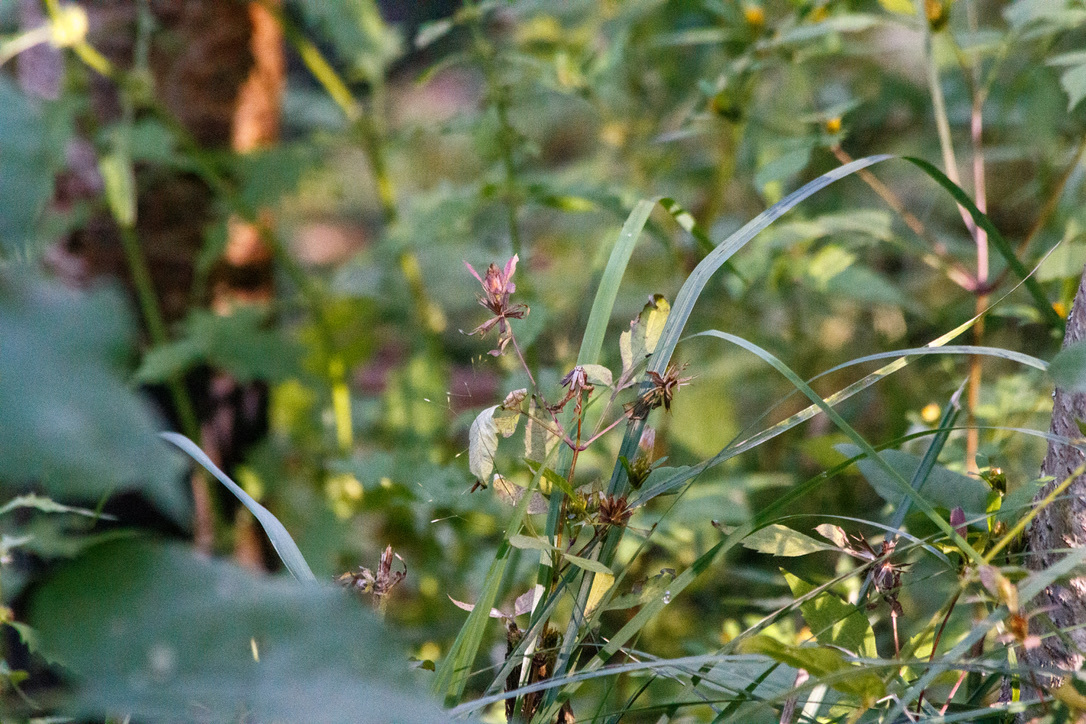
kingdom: Plantae
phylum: Tracheophyta
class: Magnoliopsida
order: Asterales
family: Asteraceae
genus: Bidens
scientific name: Bidens frondosa
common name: Beggarticks
